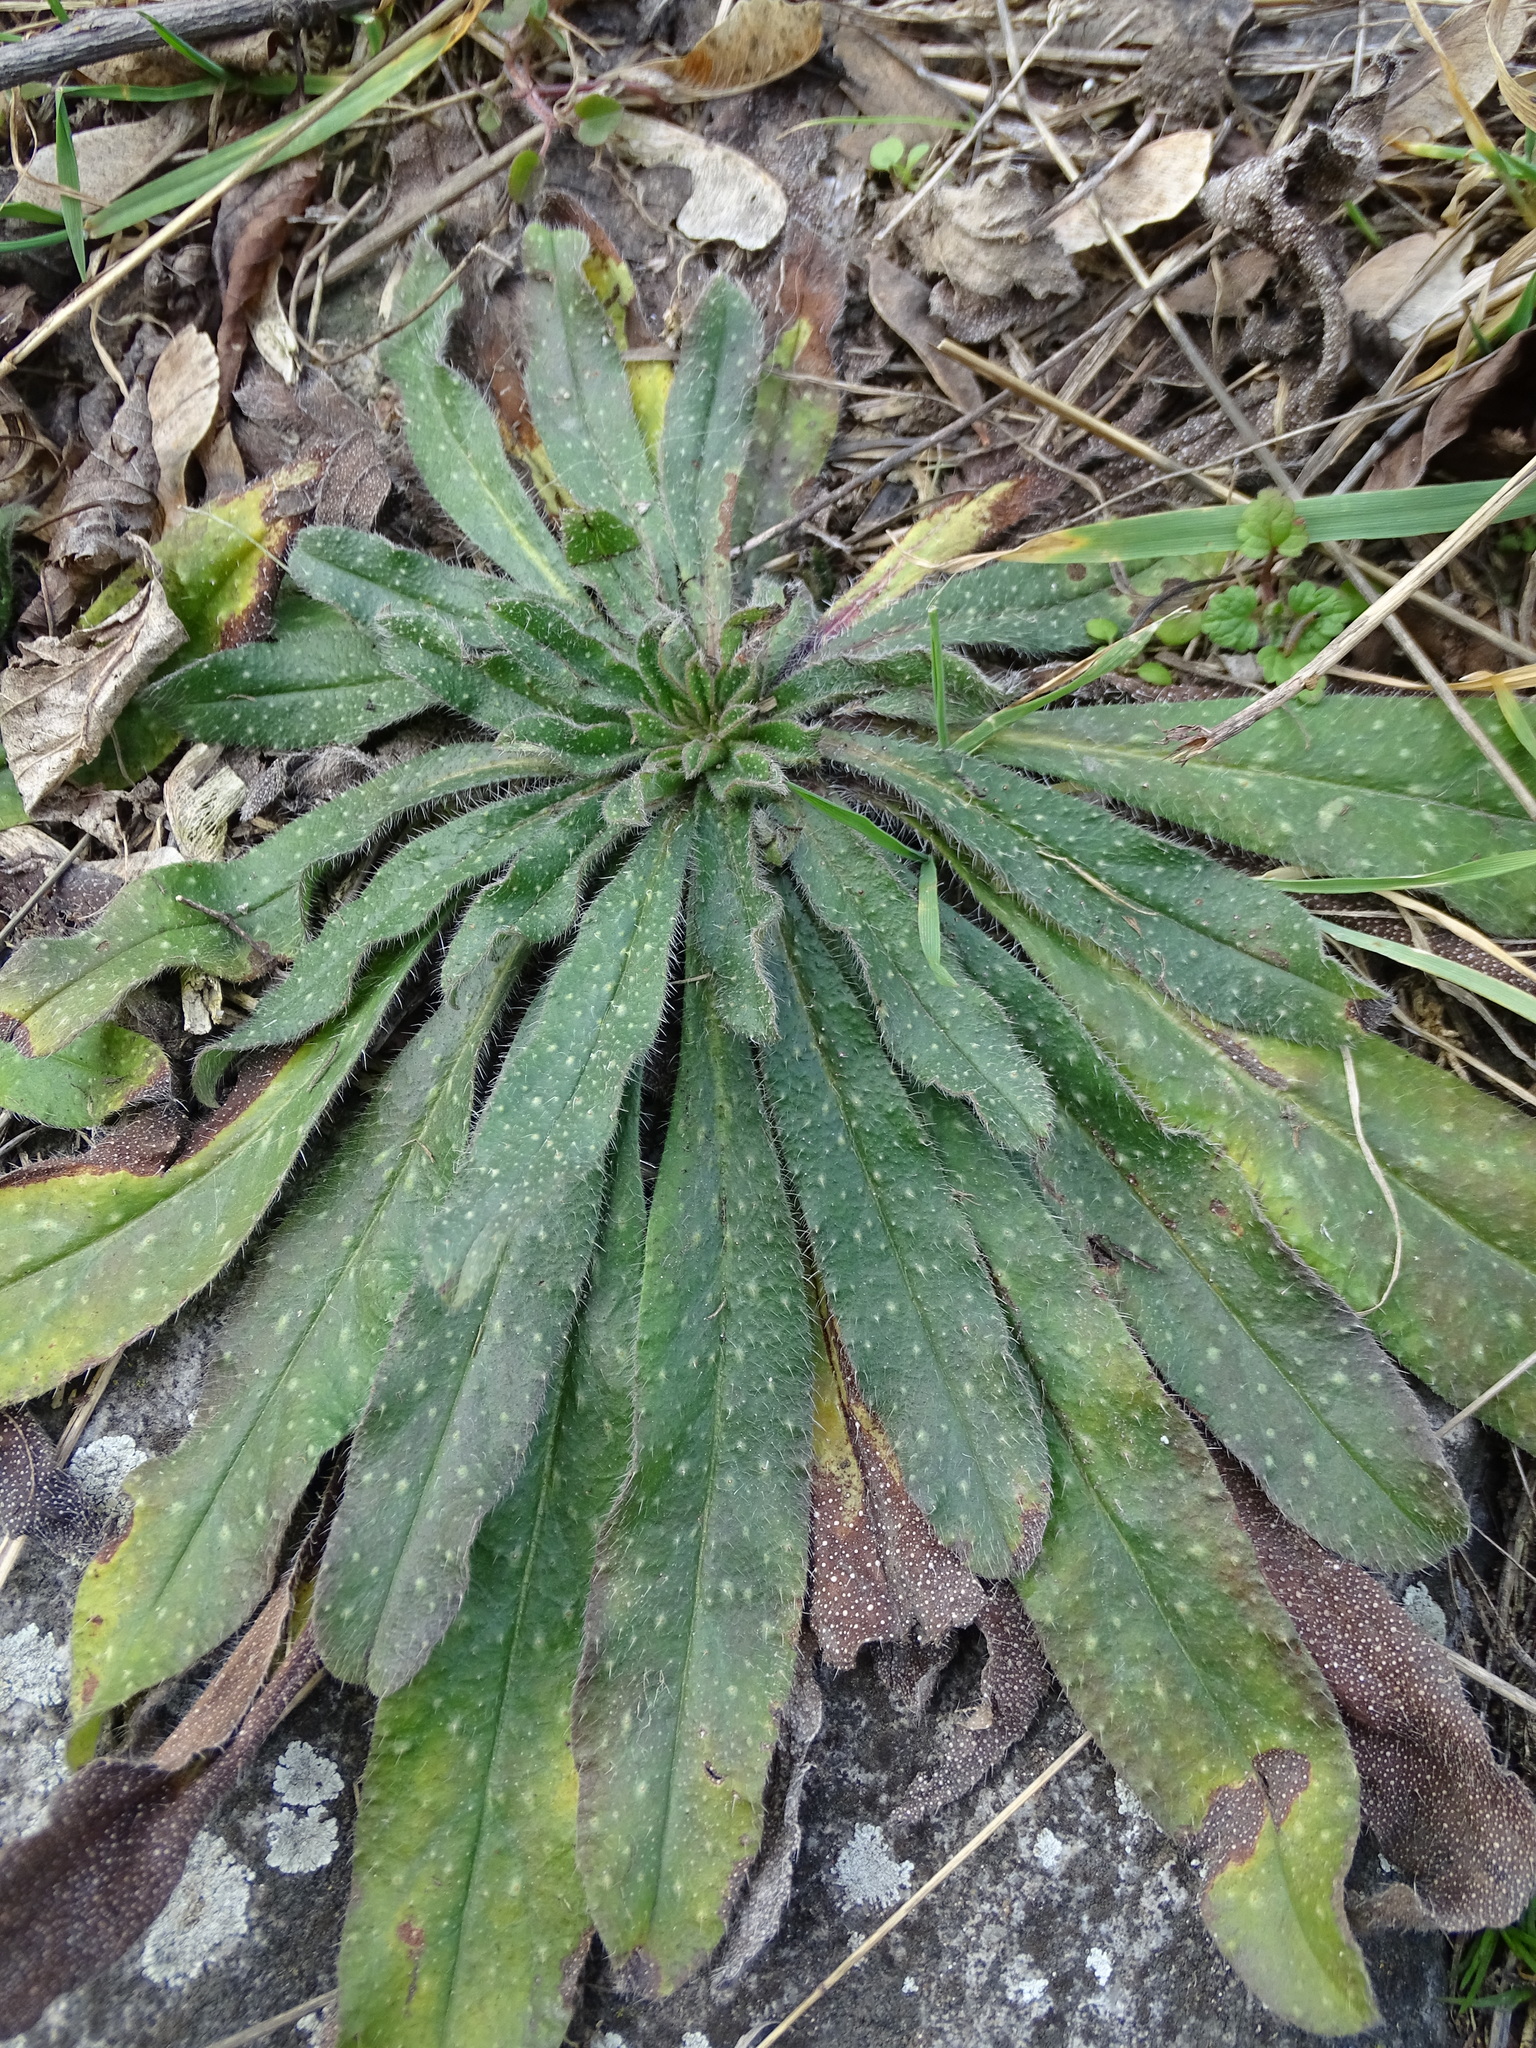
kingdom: Plantae
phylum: Tracheophyta
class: Magnoliopsida
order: Boraginales
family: Boraginaceae
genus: Echium
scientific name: Echium vulgare
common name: Common viper's bugloss
